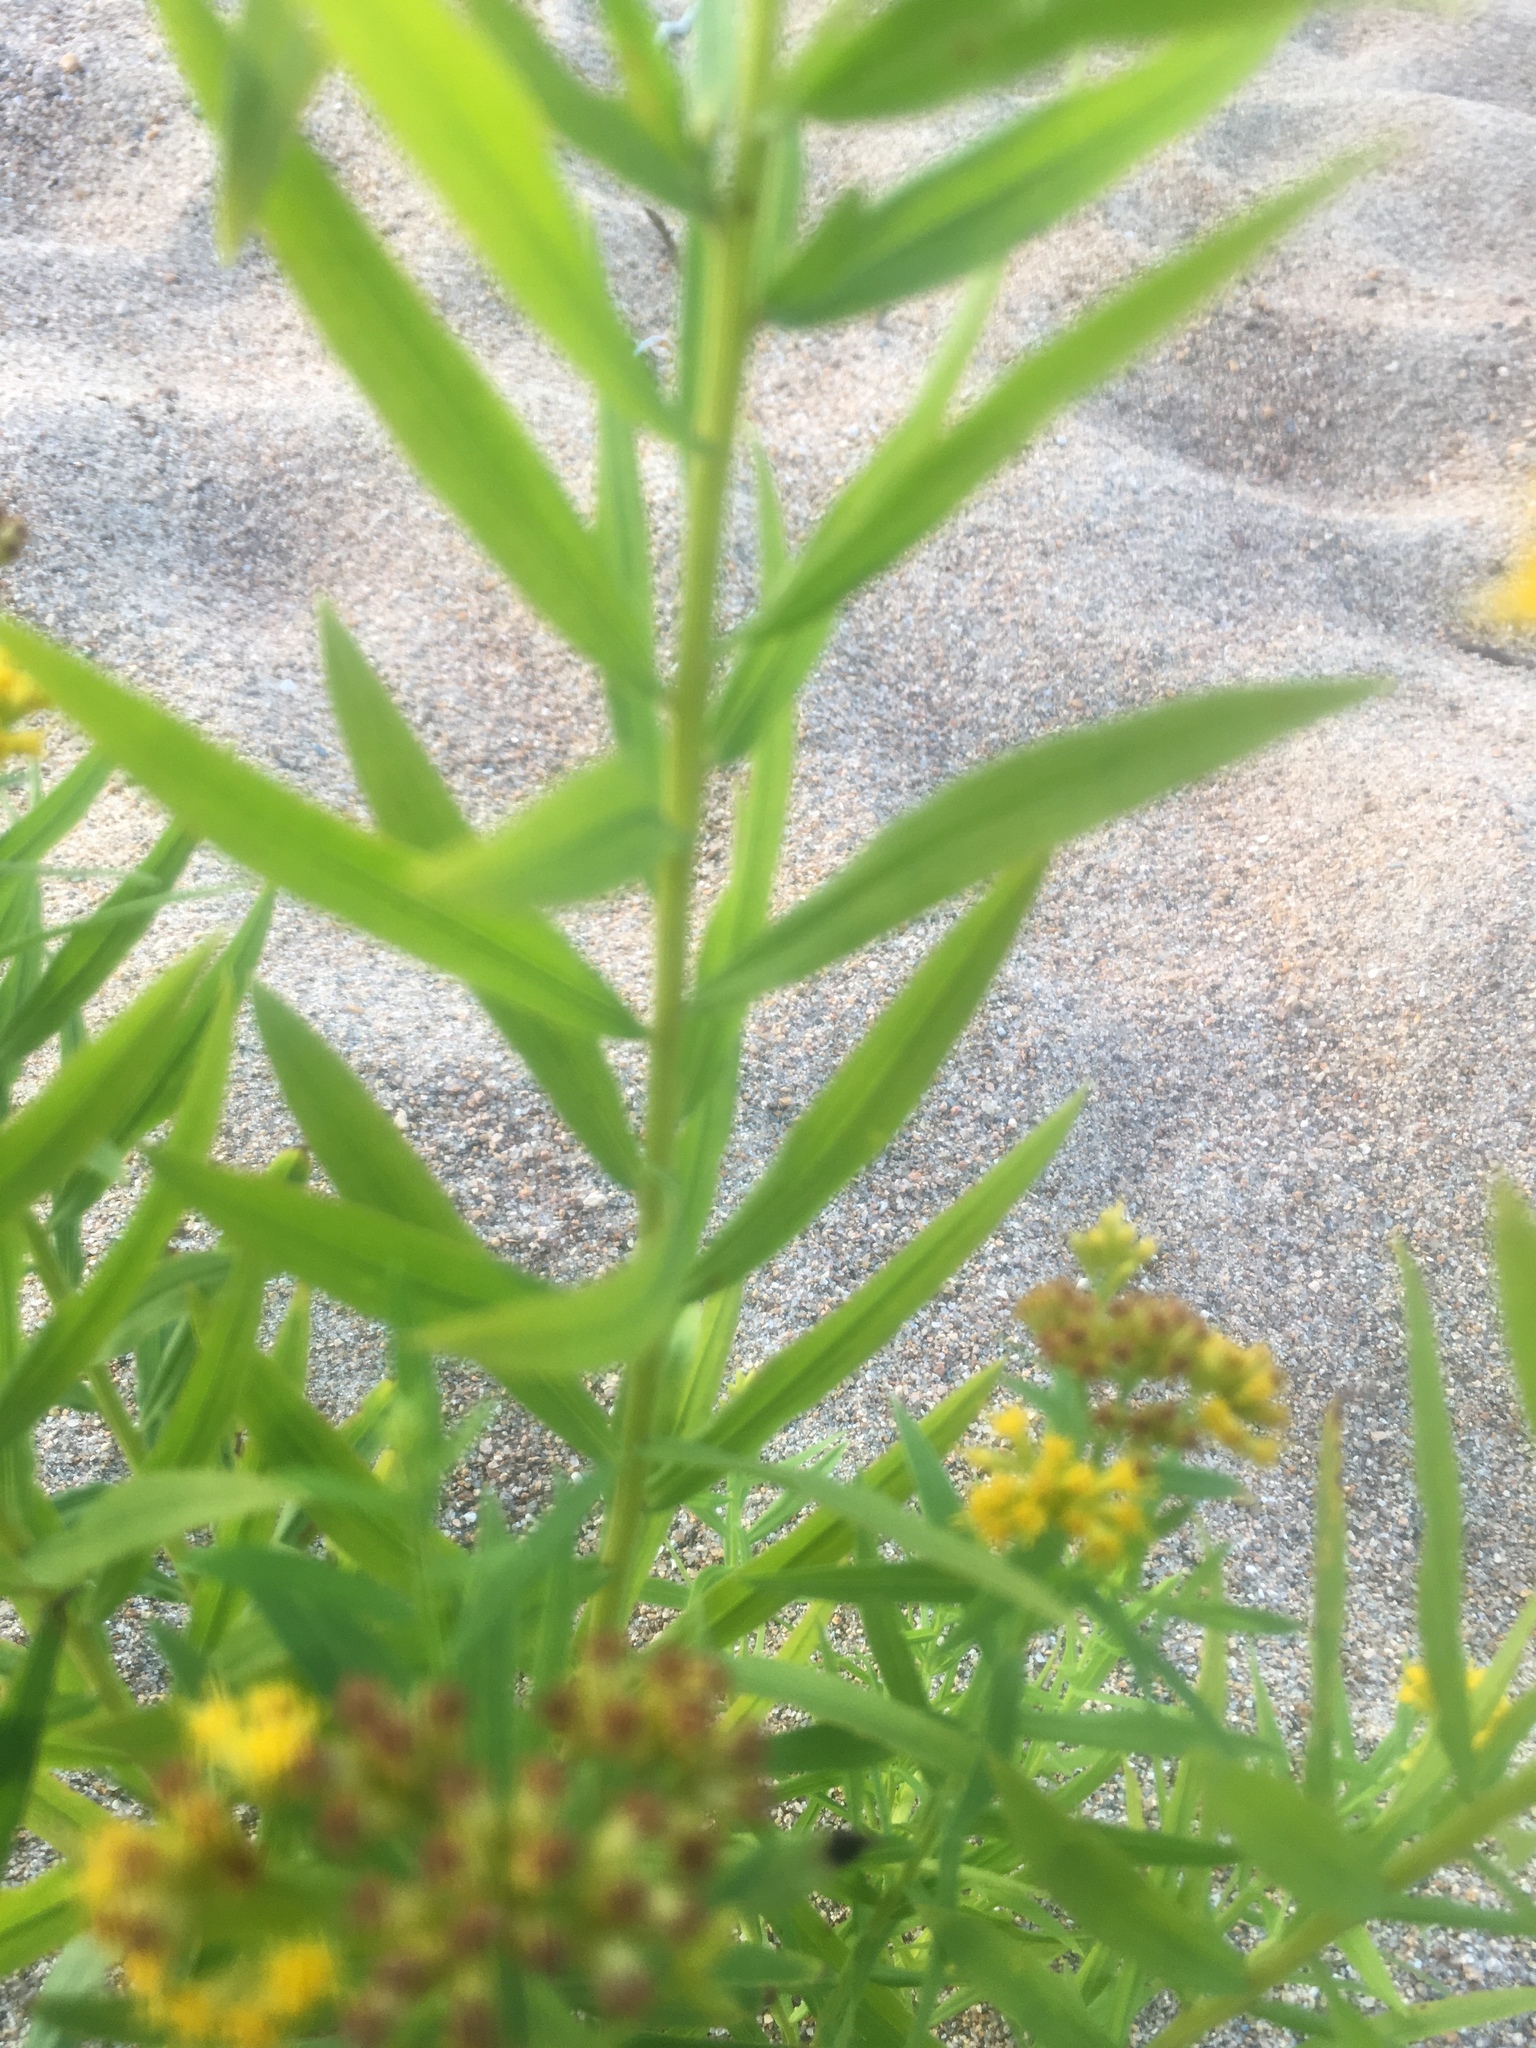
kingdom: Plantae
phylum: Tracheophyta
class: Magnoliopsida
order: Asterales
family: Asteraceae
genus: Euthamia
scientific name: Euthamia graminifolia
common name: Common goldentop
